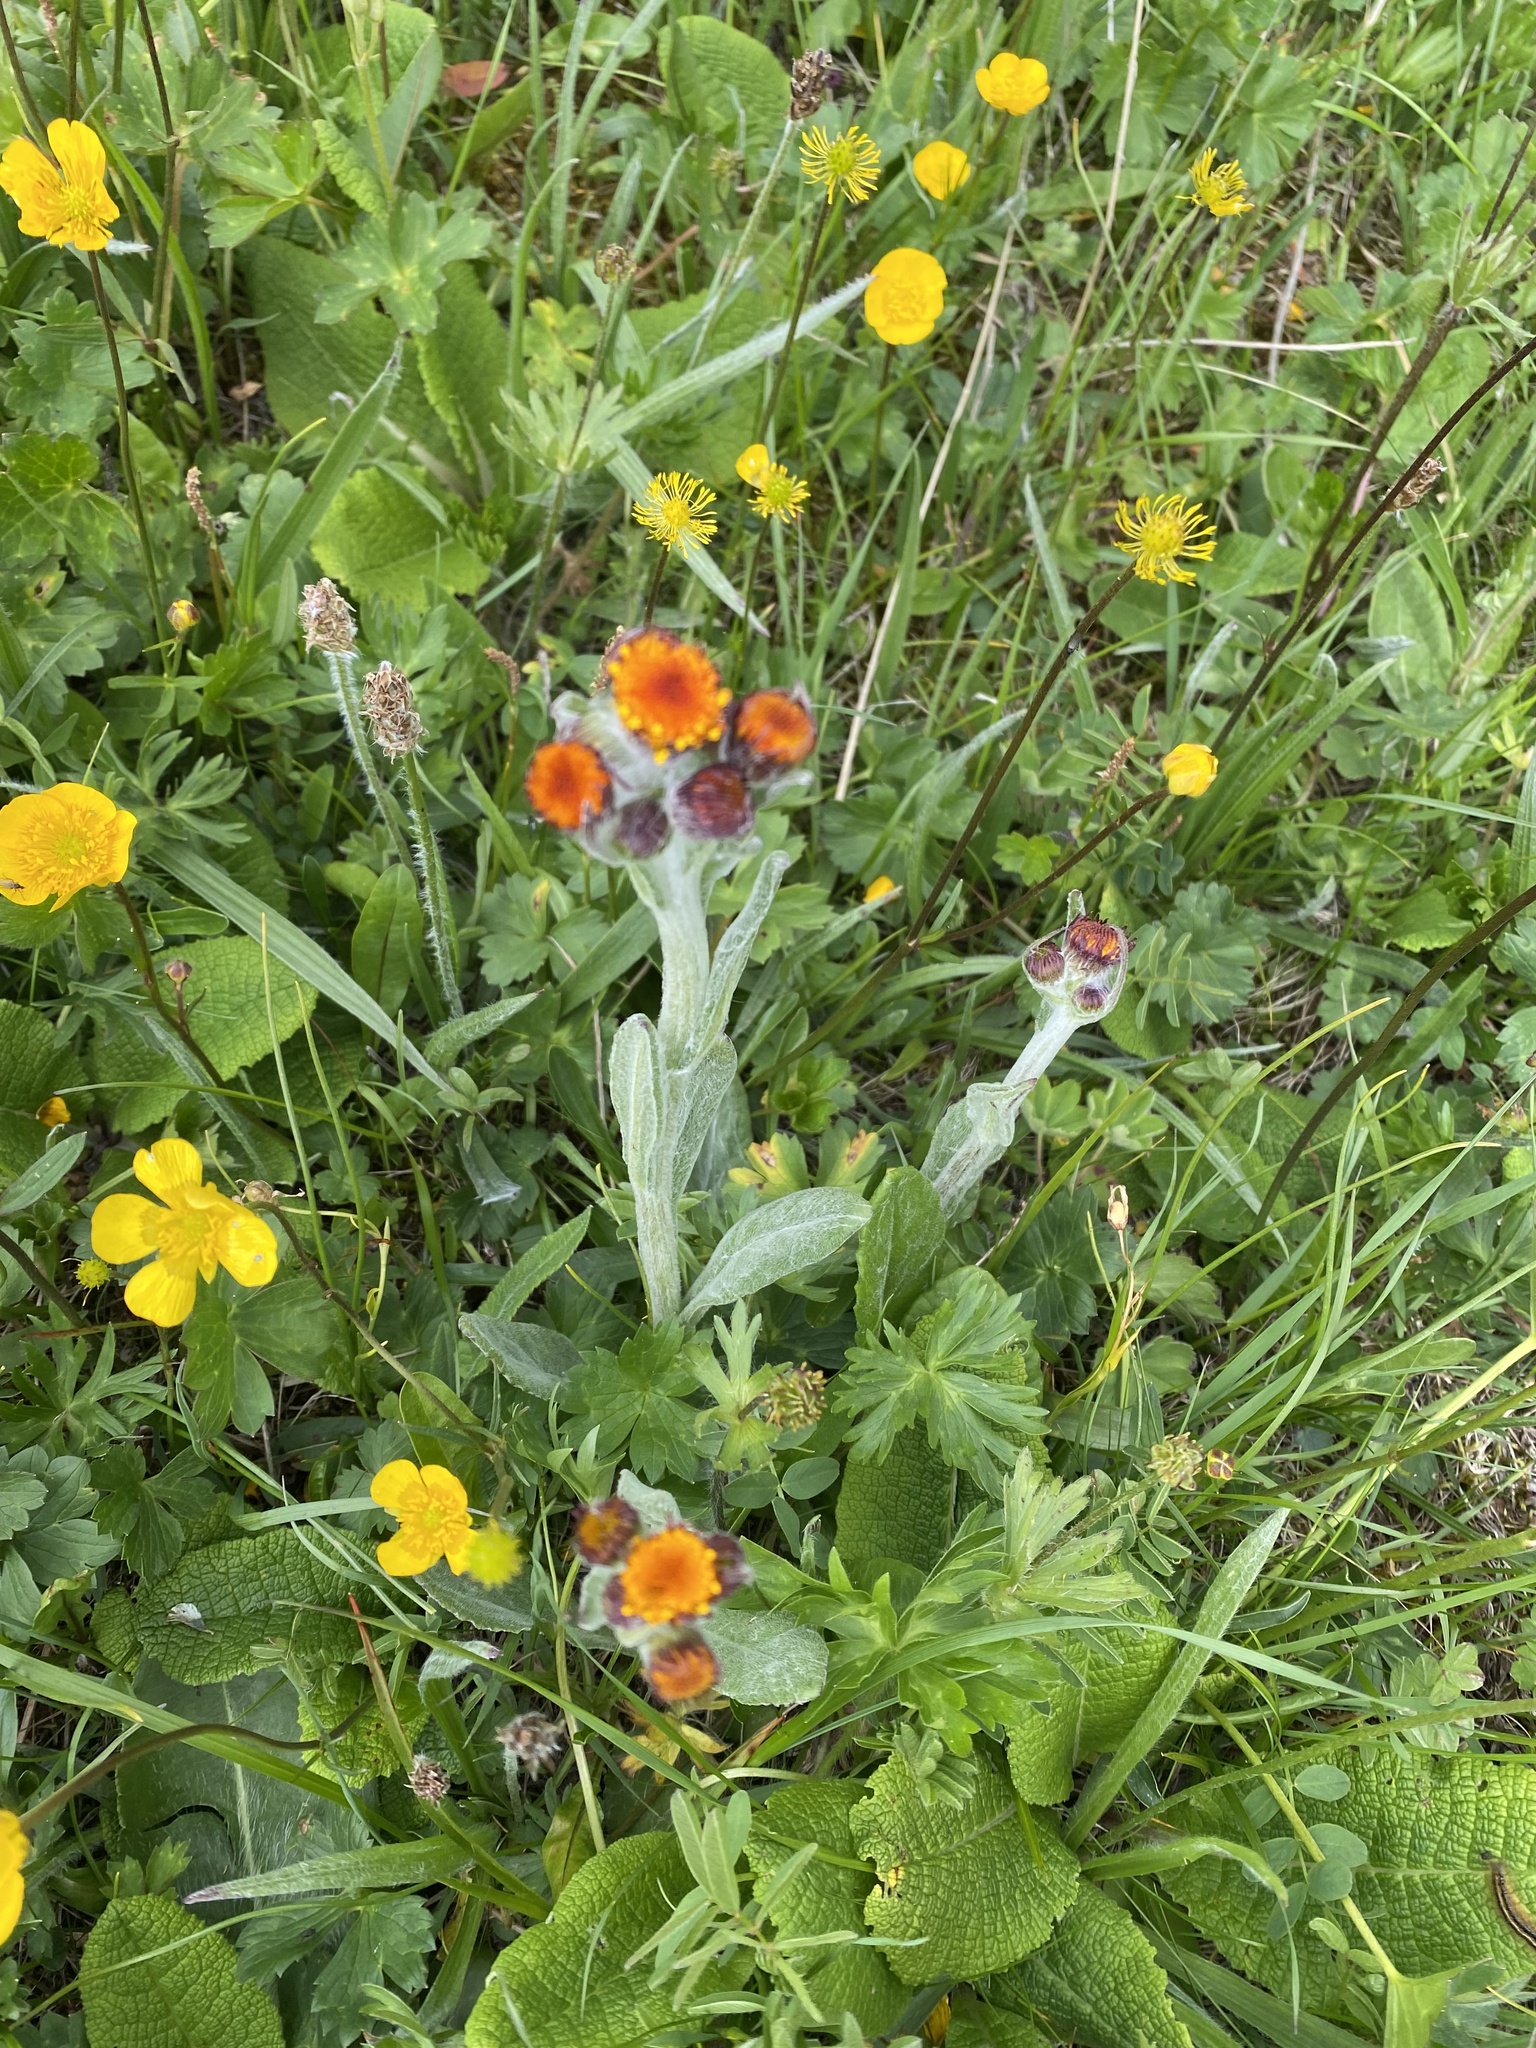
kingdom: Plantae
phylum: Tracheophyta
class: Magnoliopsida
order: Asterales
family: Asteraceae
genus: Tephroseris
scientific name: Tephroseris integrifolia
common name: Field fleawort
